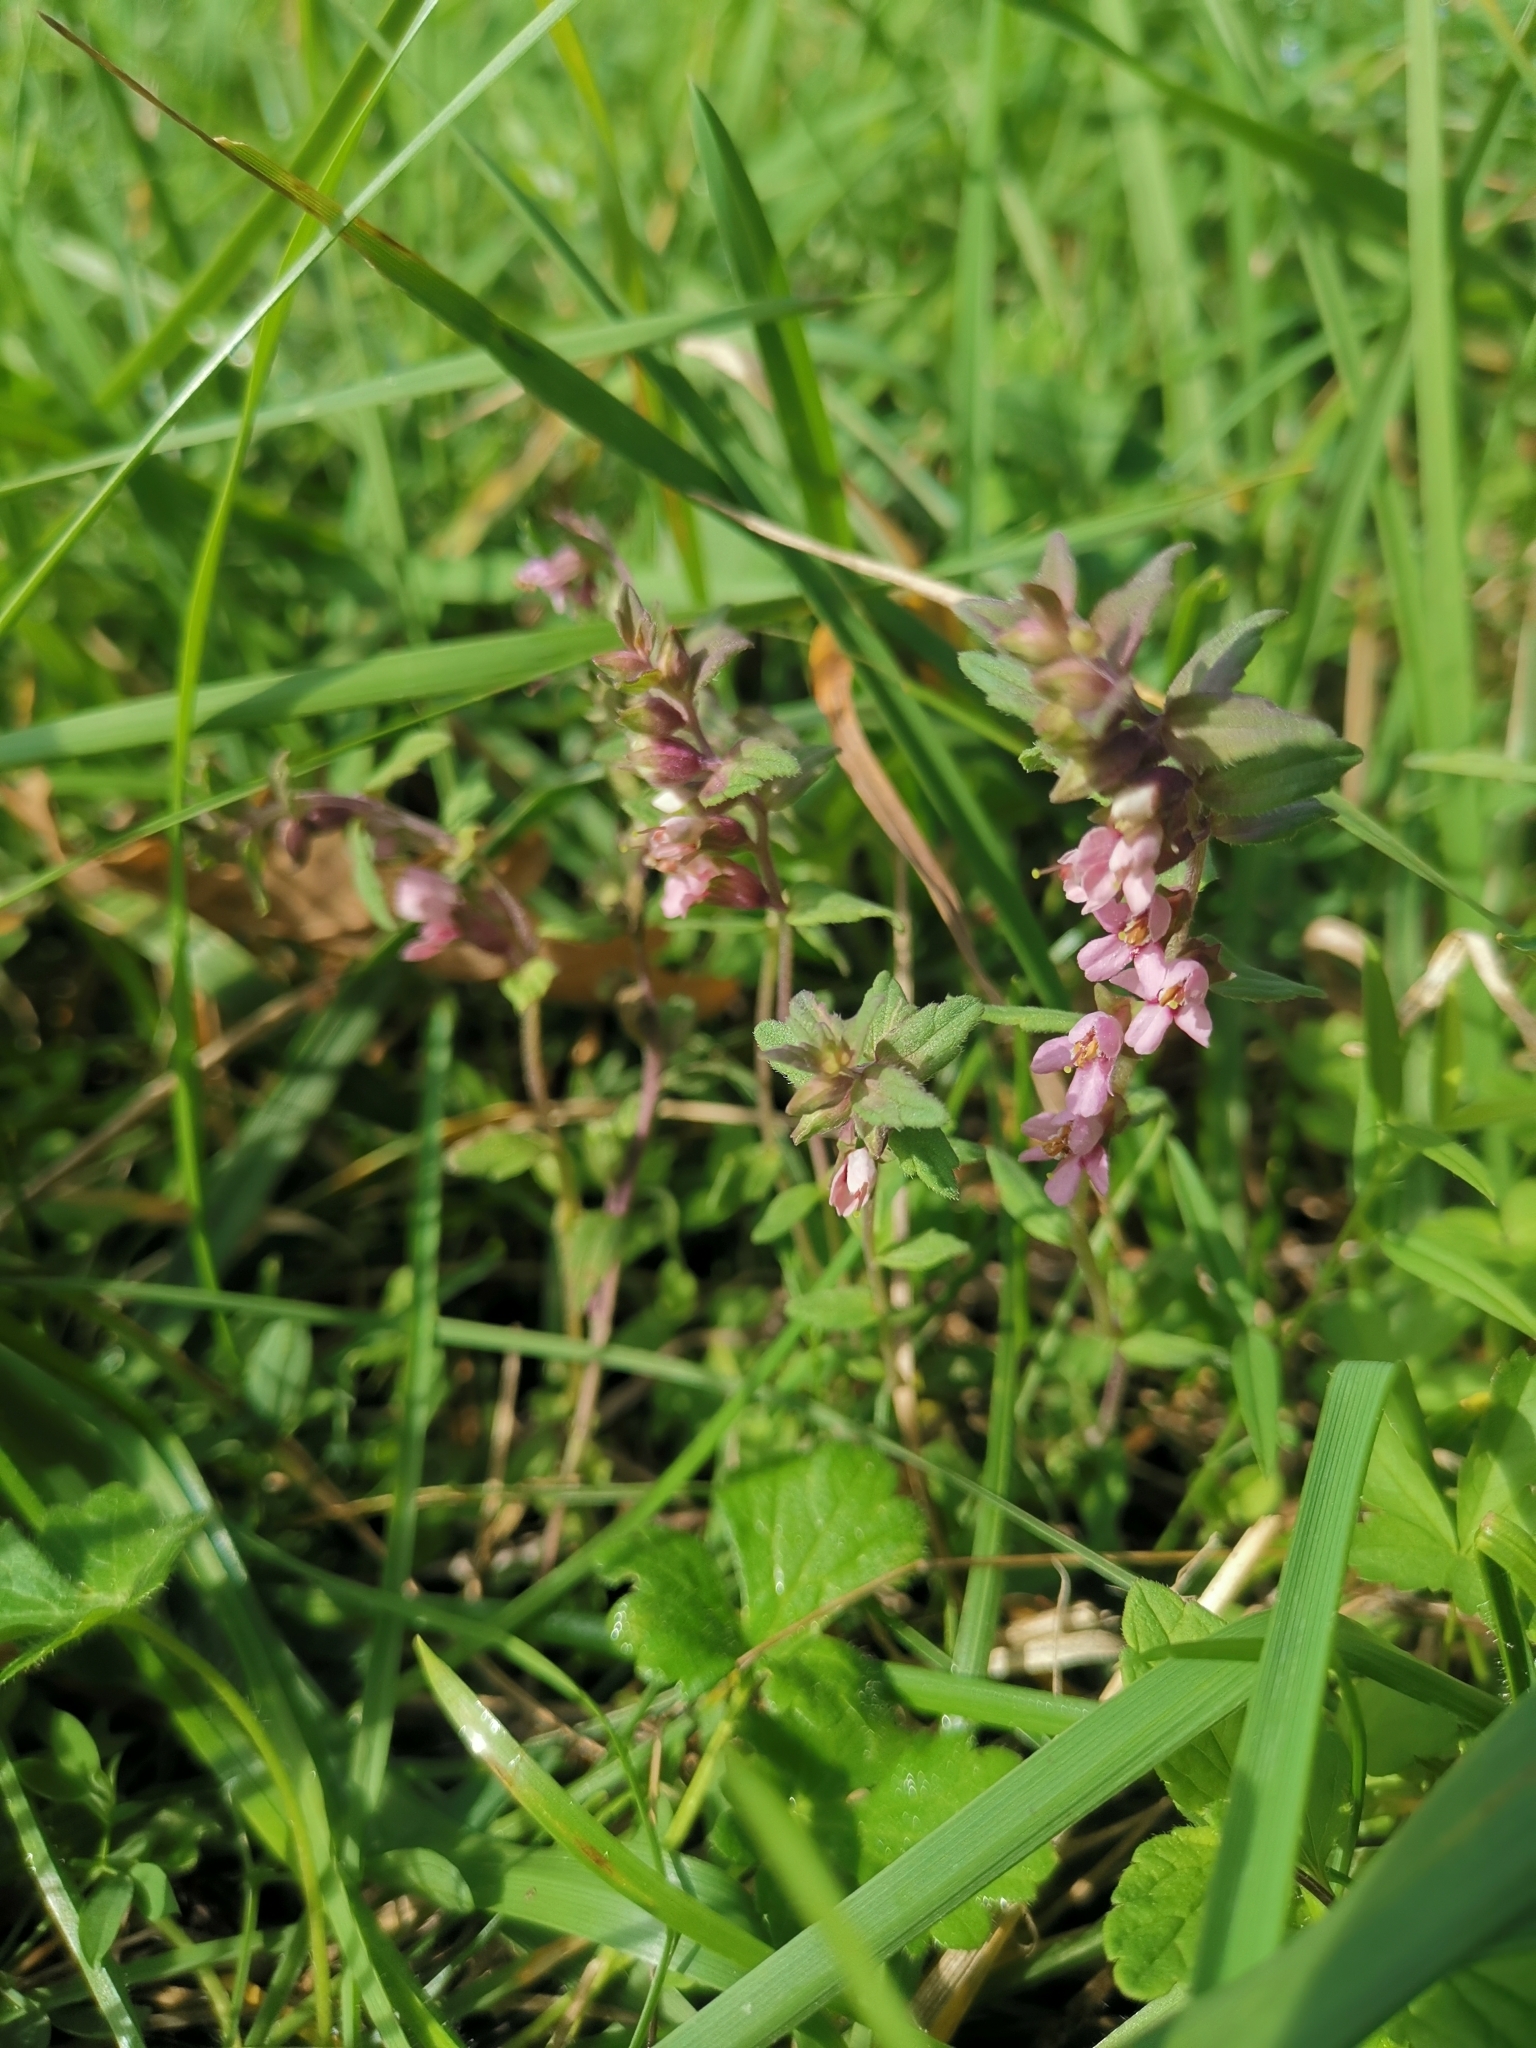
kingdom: Plantae
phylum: Tracheophyta
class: Magnoliopsida
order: Lamiales
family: Orobanchaceae
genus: Odontites
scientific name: Odontites vulgaris
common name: Broomrape
